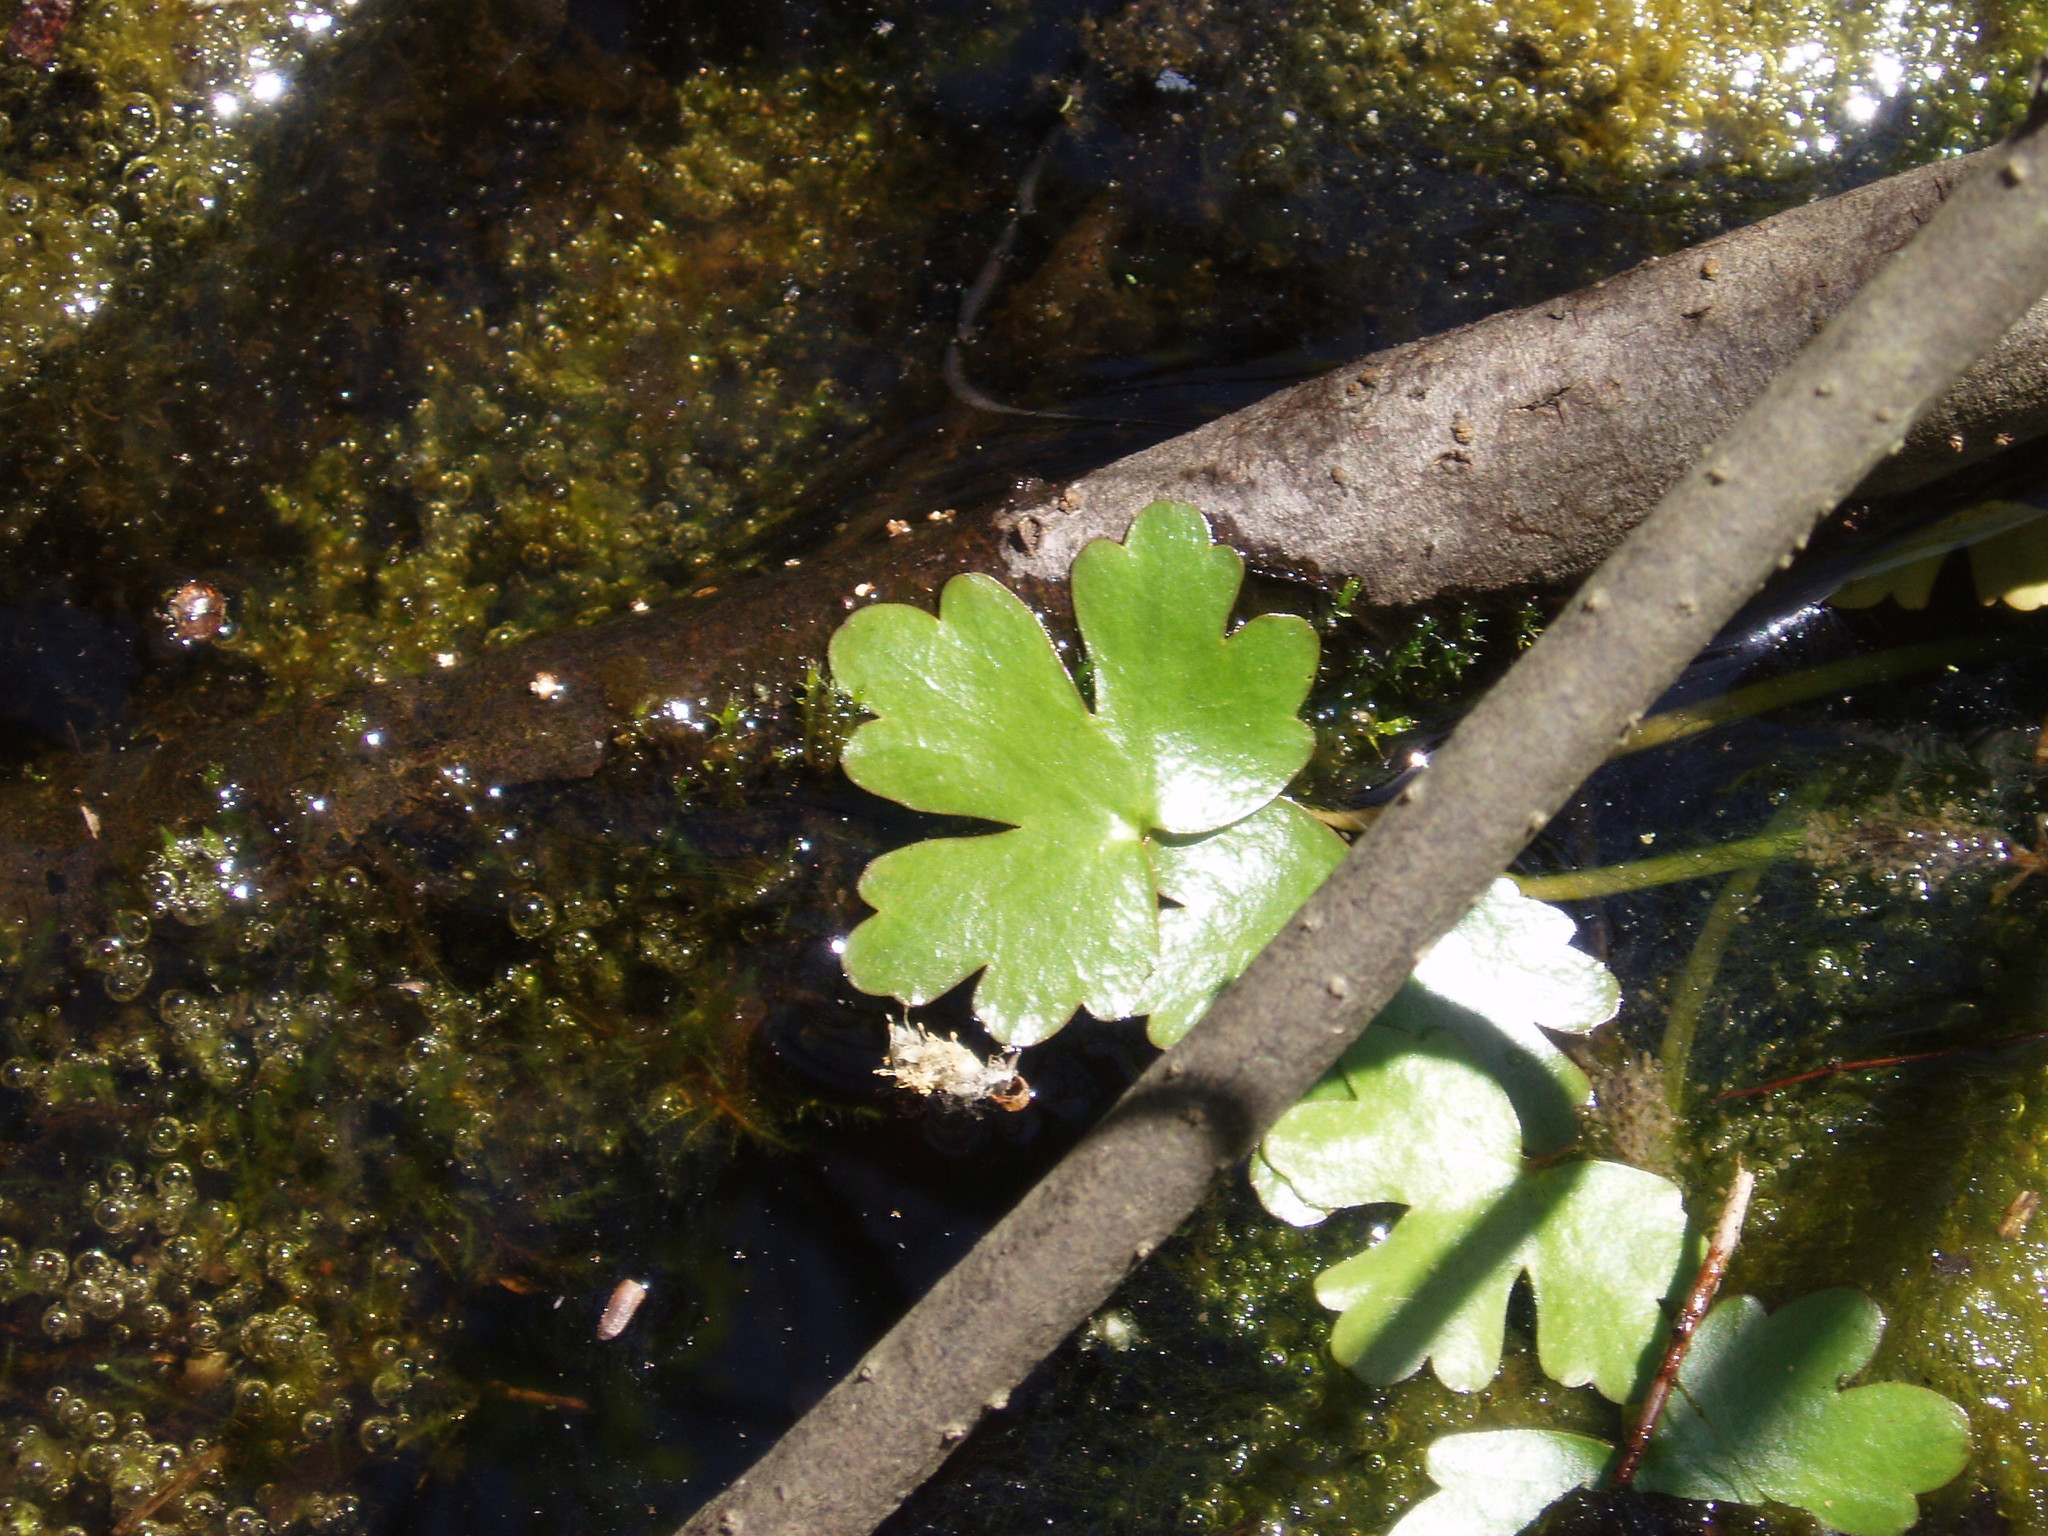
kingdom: Plantae
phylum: Tracheophyta
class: Magnoliopsida
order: Ranunculales
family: Ranunculaceae
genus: Ranunculus
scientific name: Ranunculus sceleratus
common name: Celery-leaved buttercup
